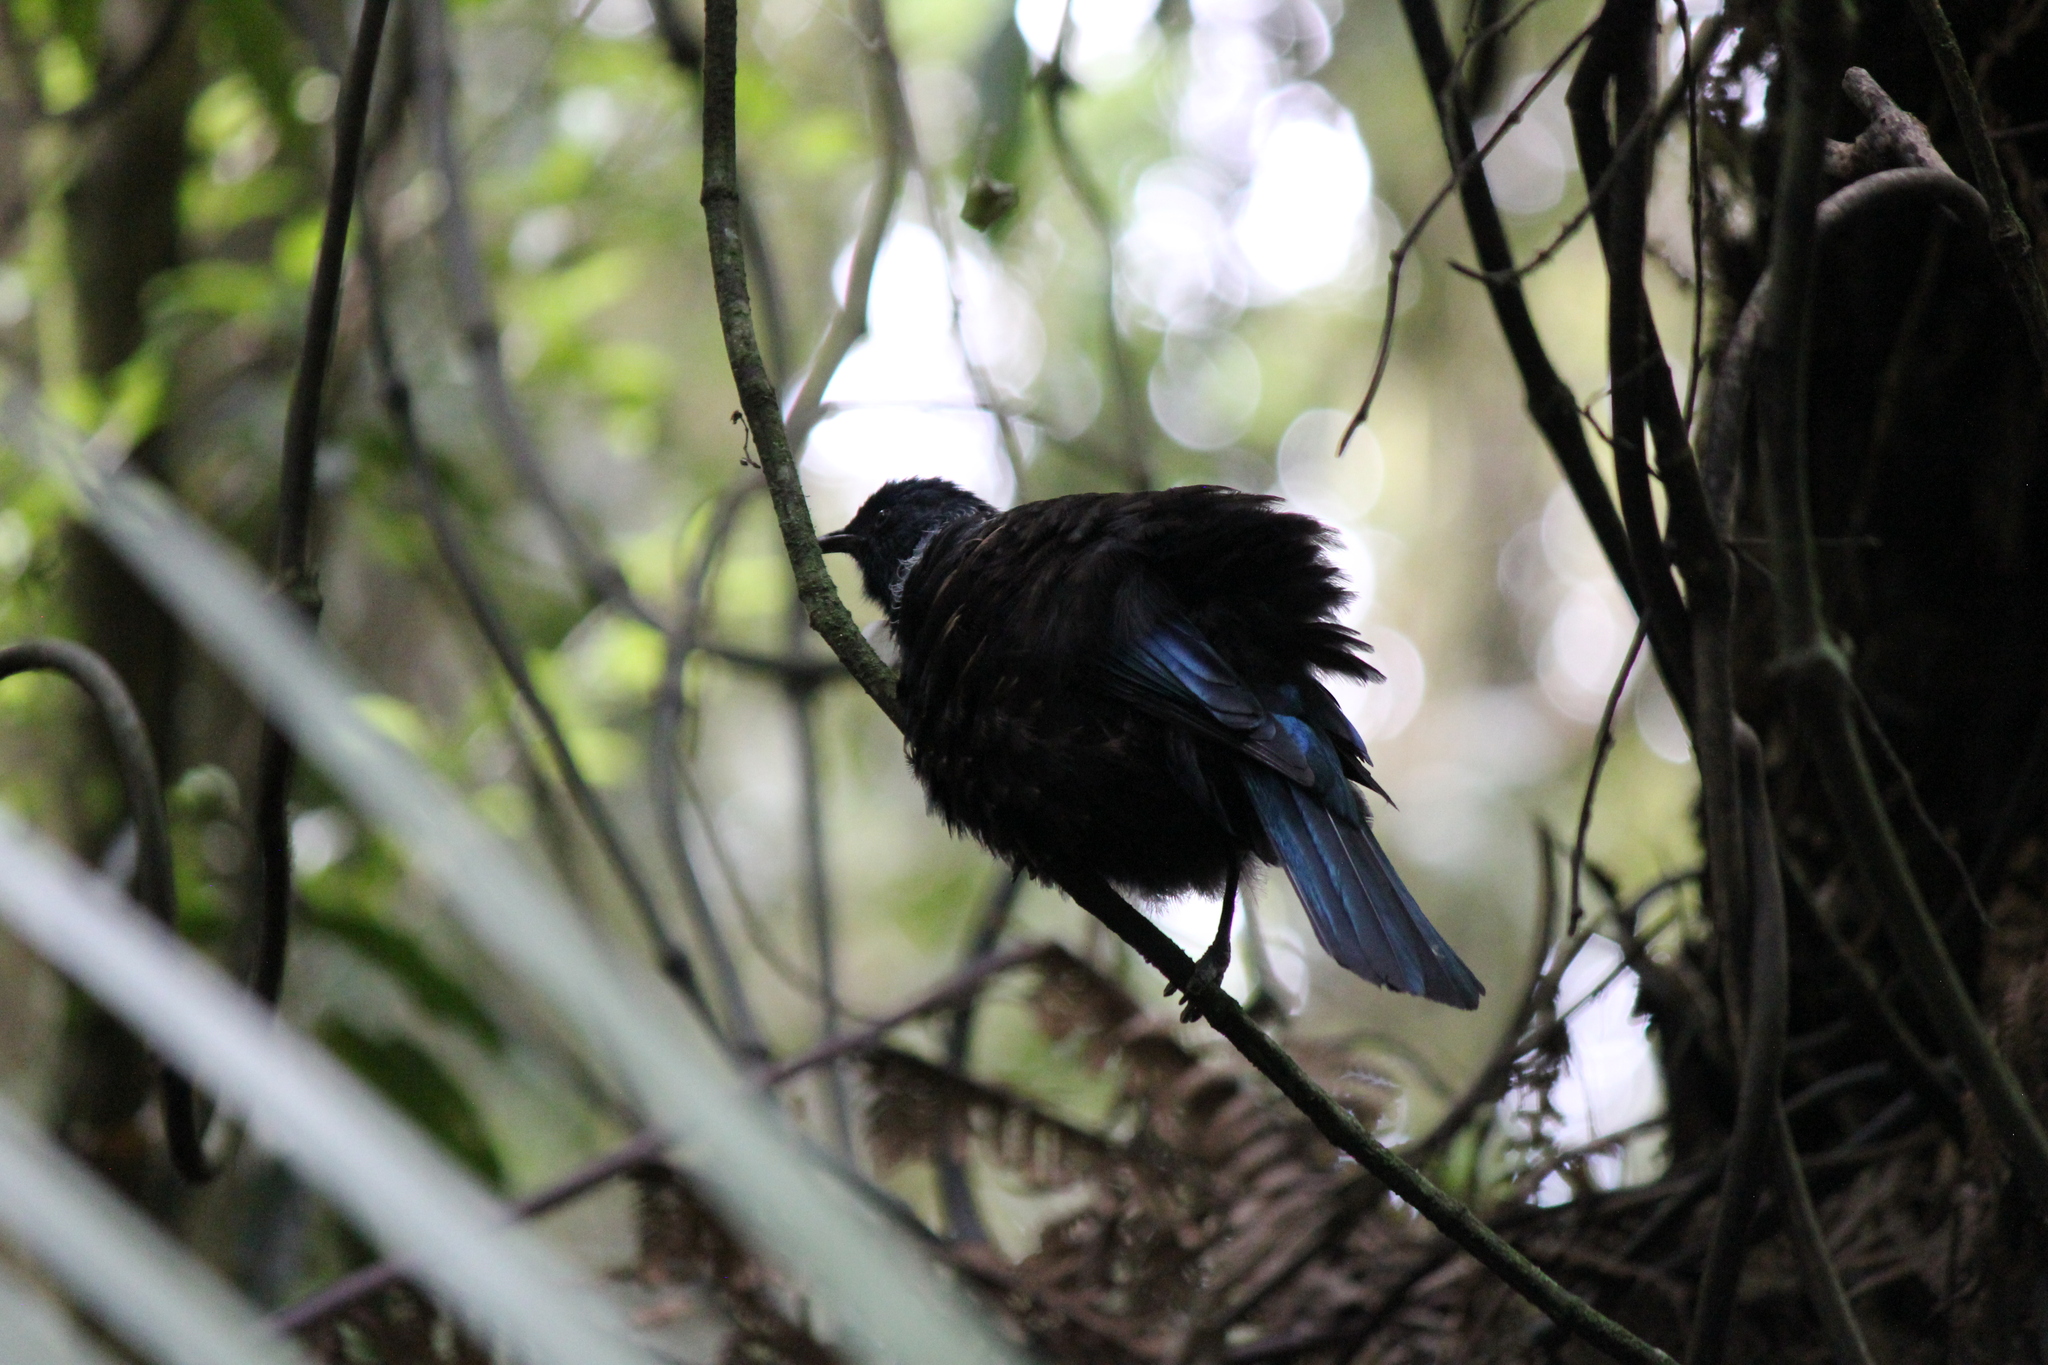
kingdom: Animalia
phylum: Chordata
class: Aves
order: Passeriformes
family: Meliphagidae
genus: Prosthemadera
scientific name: Prosthemadera novaeseelandiae
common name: Tui
